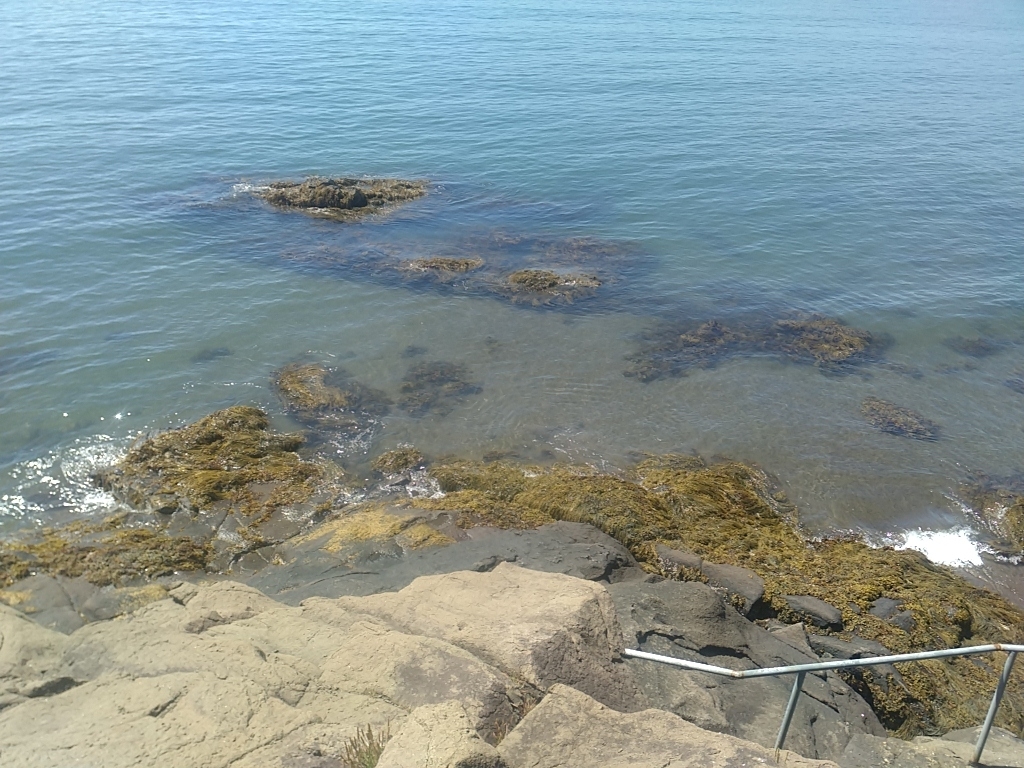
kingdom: Chromista
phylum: Ochrophyta
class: Phaeophyceae
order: Fucales
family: Fucaceae
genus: Ascophyllum
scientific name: Ascophyllum nodosum
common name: Knotted wrack
